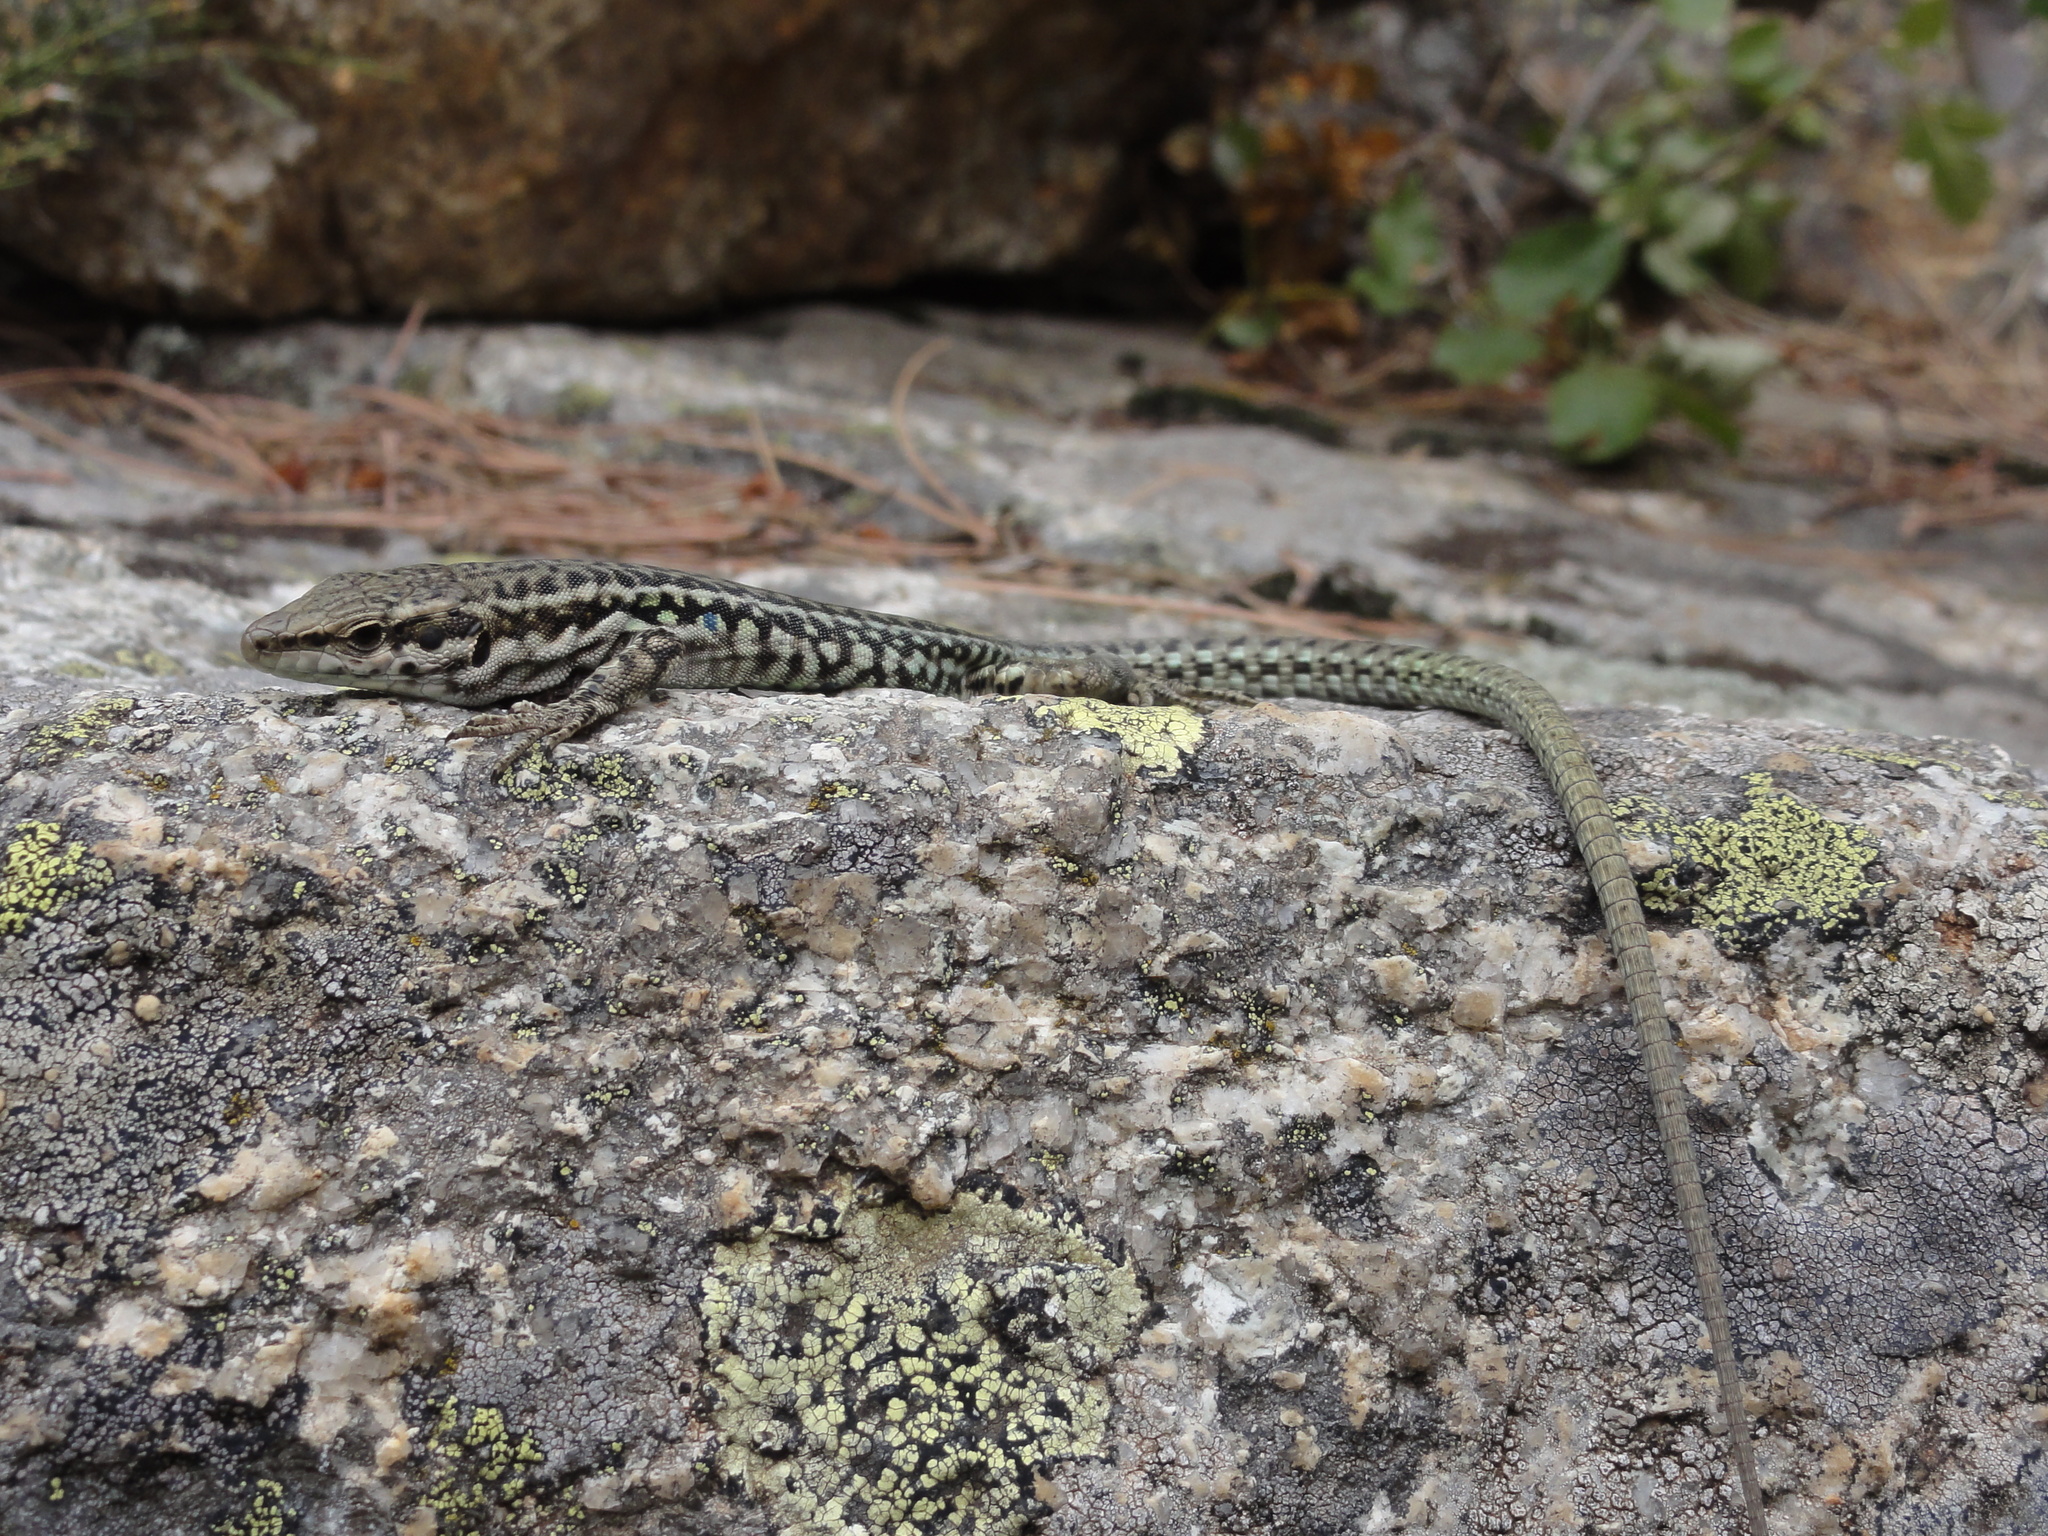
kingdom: Animalia
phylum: Chordata
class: Squamata
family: Lacertidae
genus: Podarcis
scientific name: Podarcis tiliguerta
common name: Tyrrhenian wall lizard
